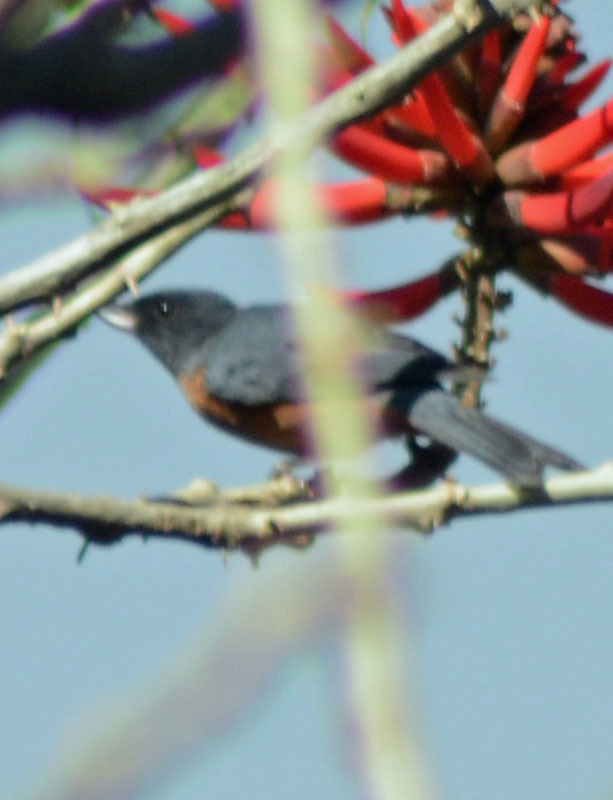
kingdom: Animalia
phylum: Chordata
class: Aves
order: Passeriformes
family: Thraupidae
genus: Diglossa
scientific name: Diglossa baritula
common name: Cinnamon-bellied flowerpiercer
